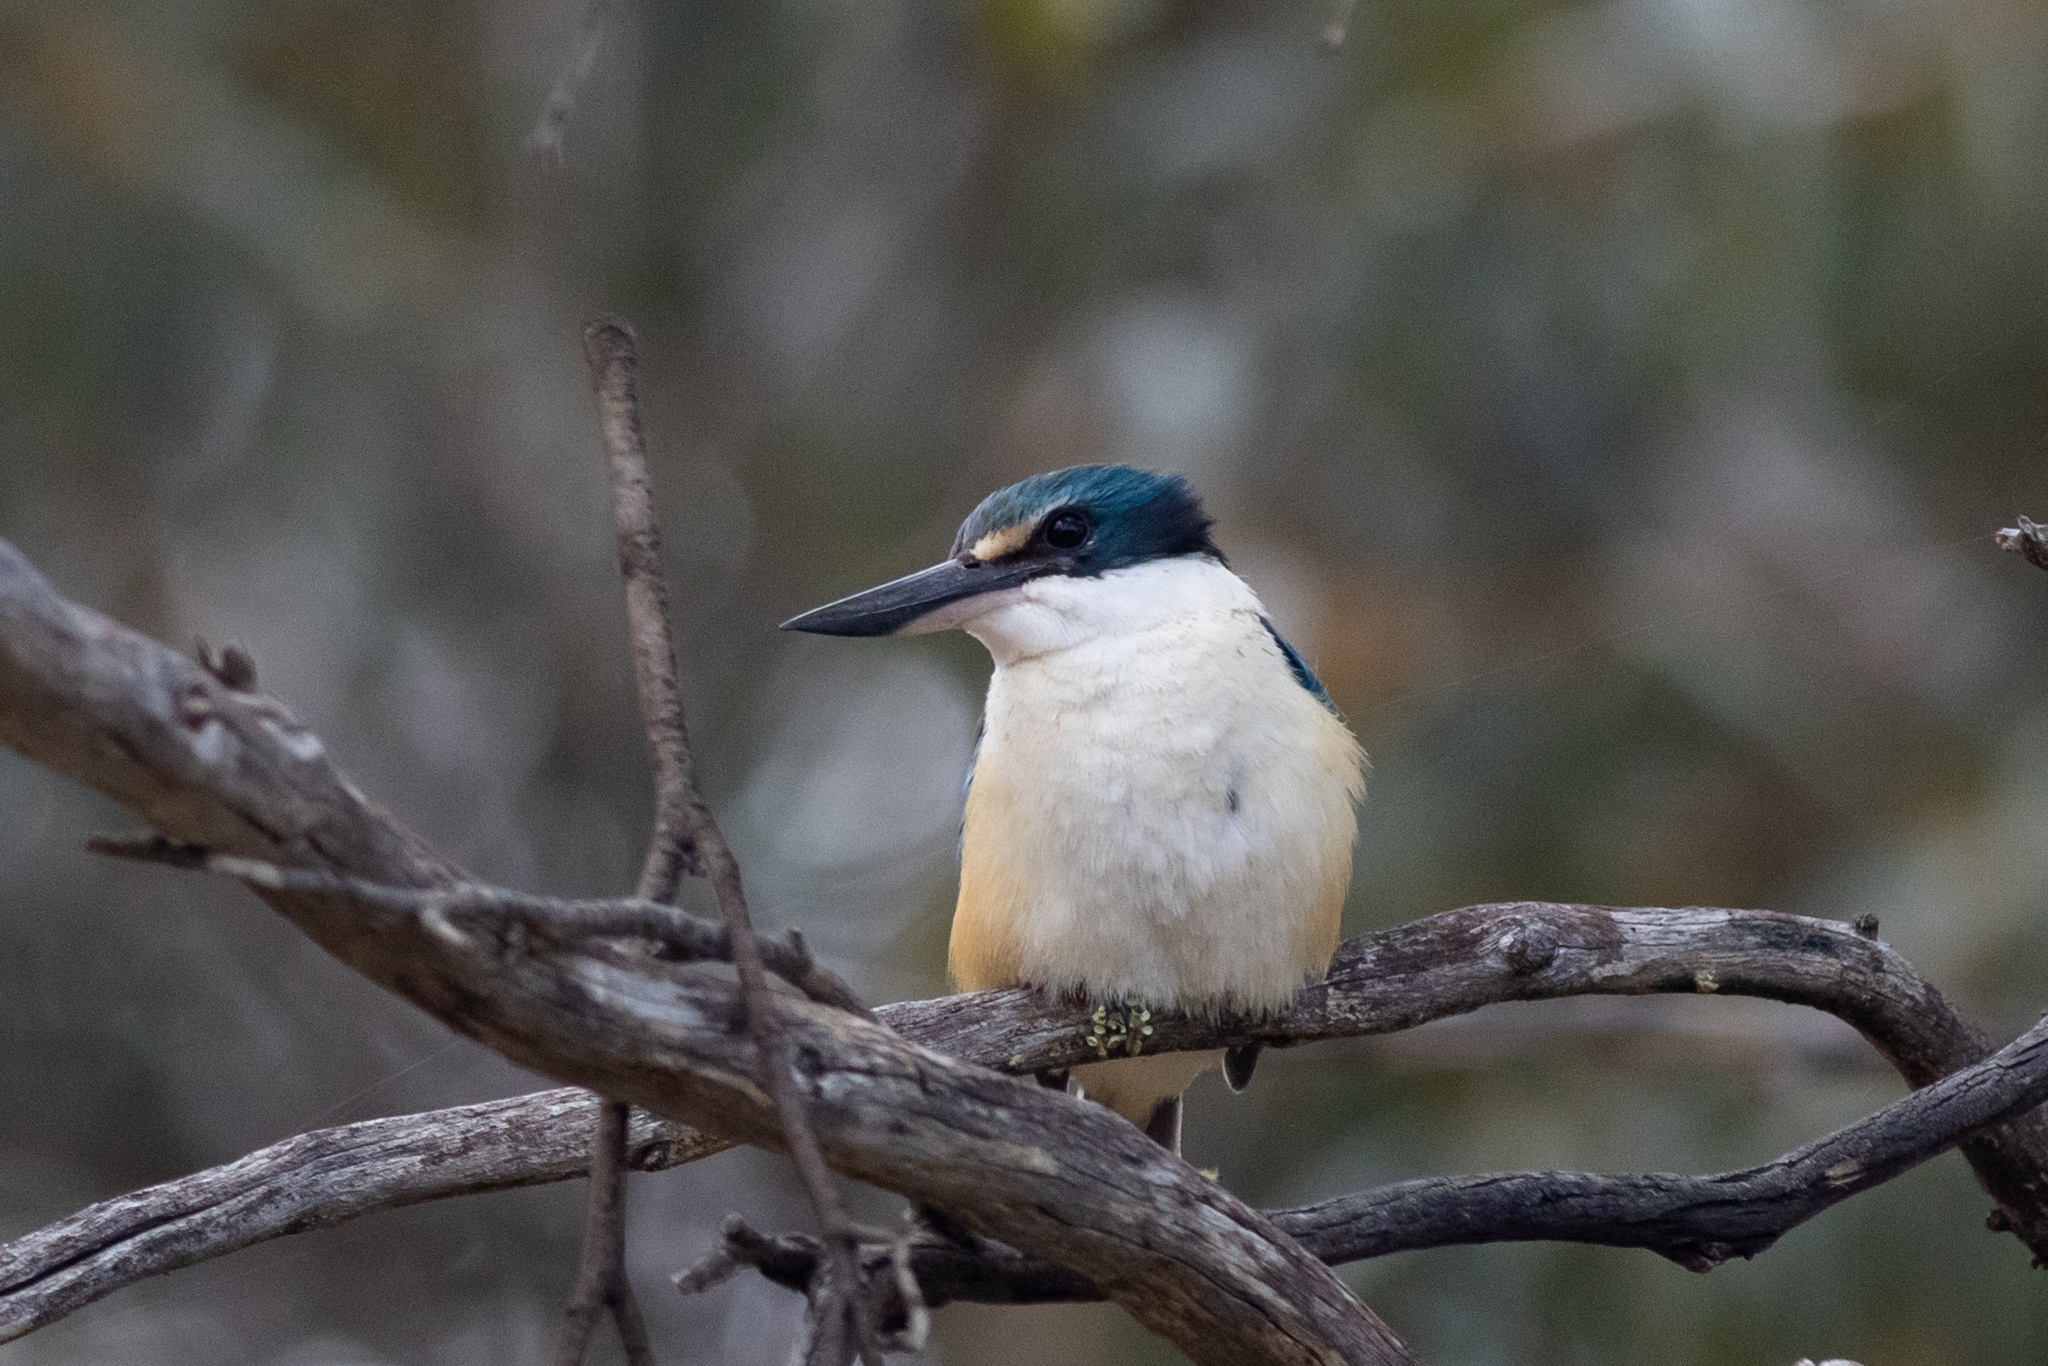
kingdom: Animalia
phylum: Chordata
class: Aves
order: Coraciiformes
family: Alcedinidae
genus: Todiramphus
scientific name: Todiramphus sanctus
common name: Sacred kingfisher
